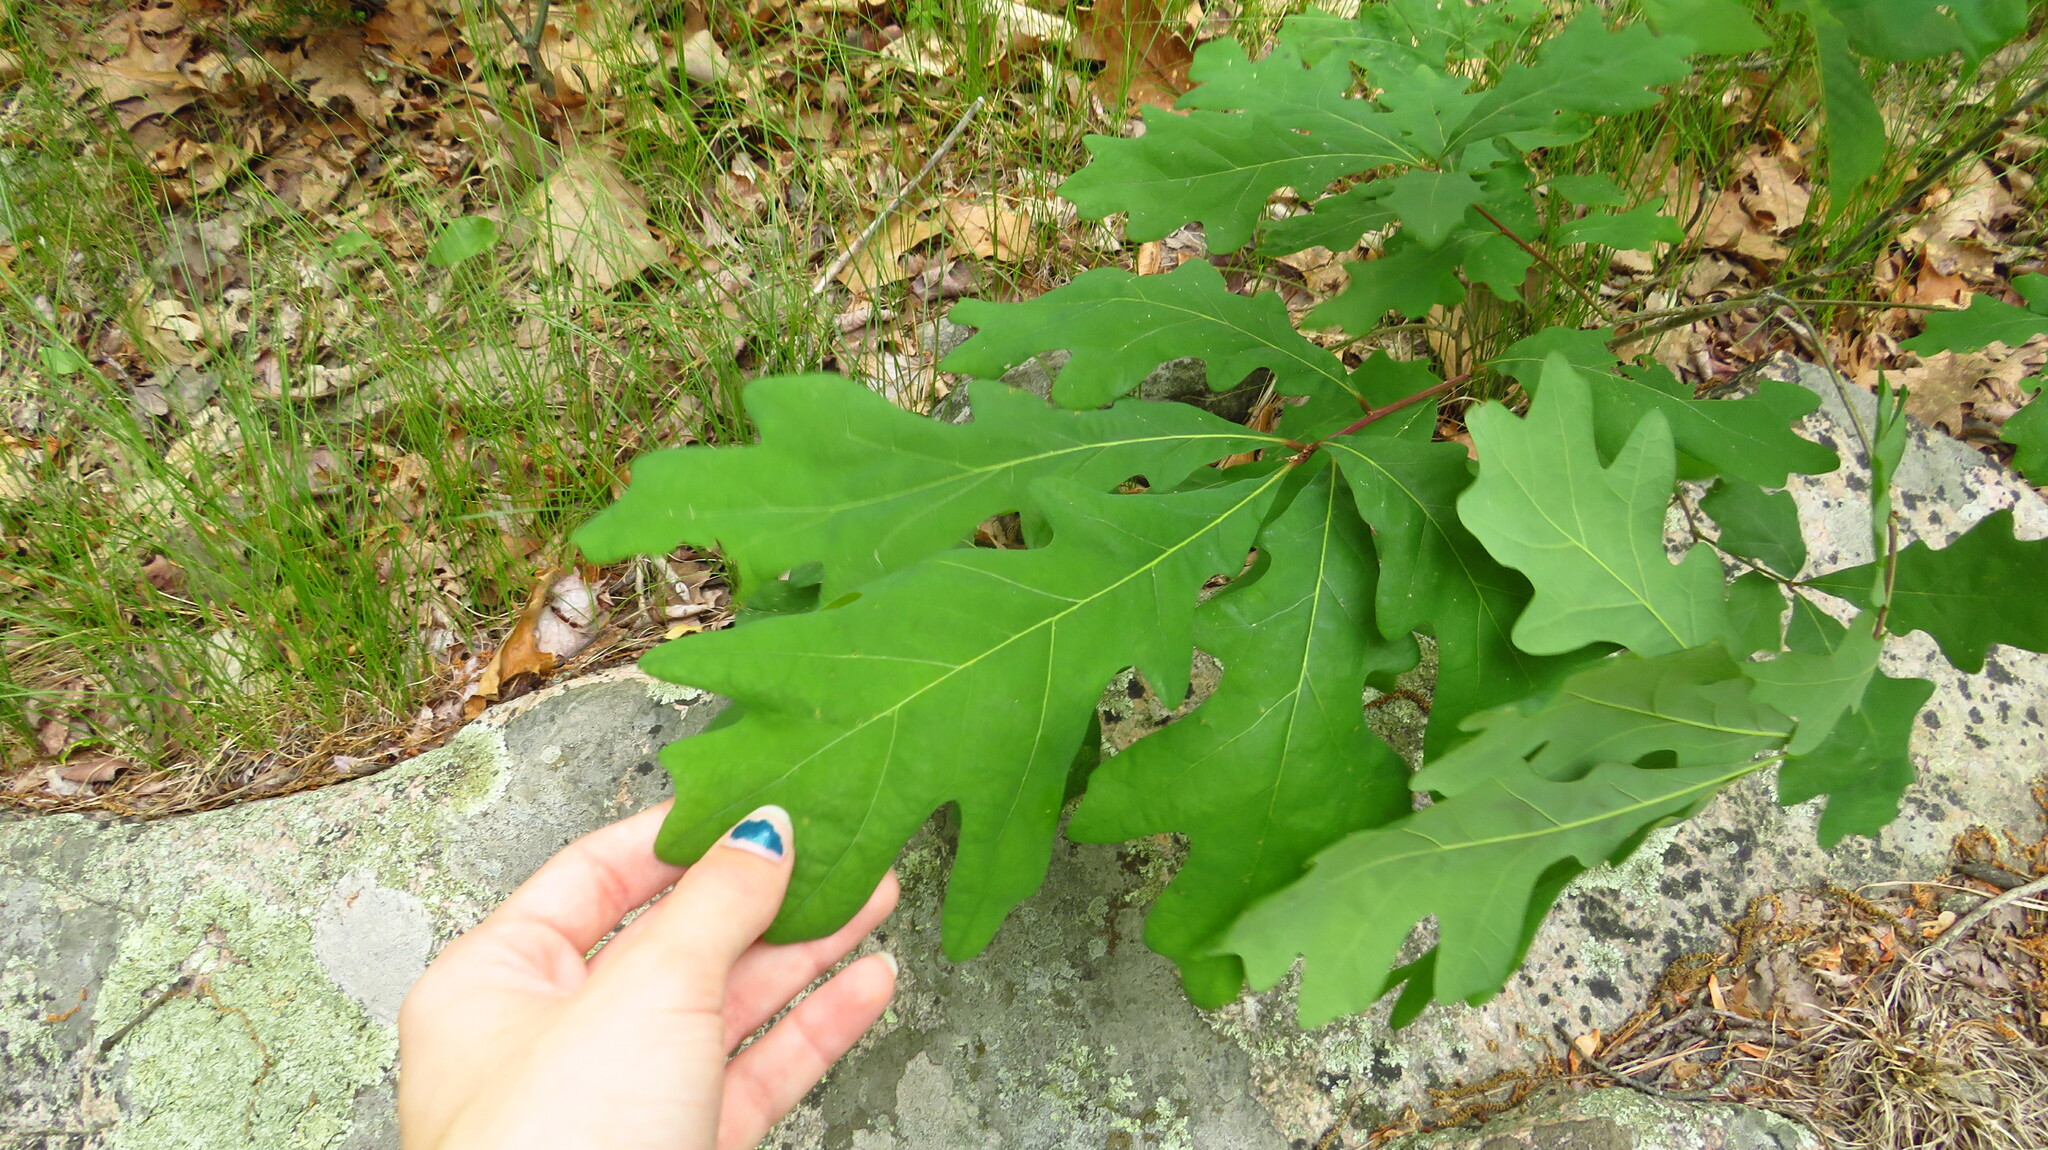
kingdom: Plantae
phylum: Tracheophyta
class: Magnoliopsida
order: Fagales
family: Fagaceae
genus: Quercus
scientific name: Quercus alba
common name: White oak
